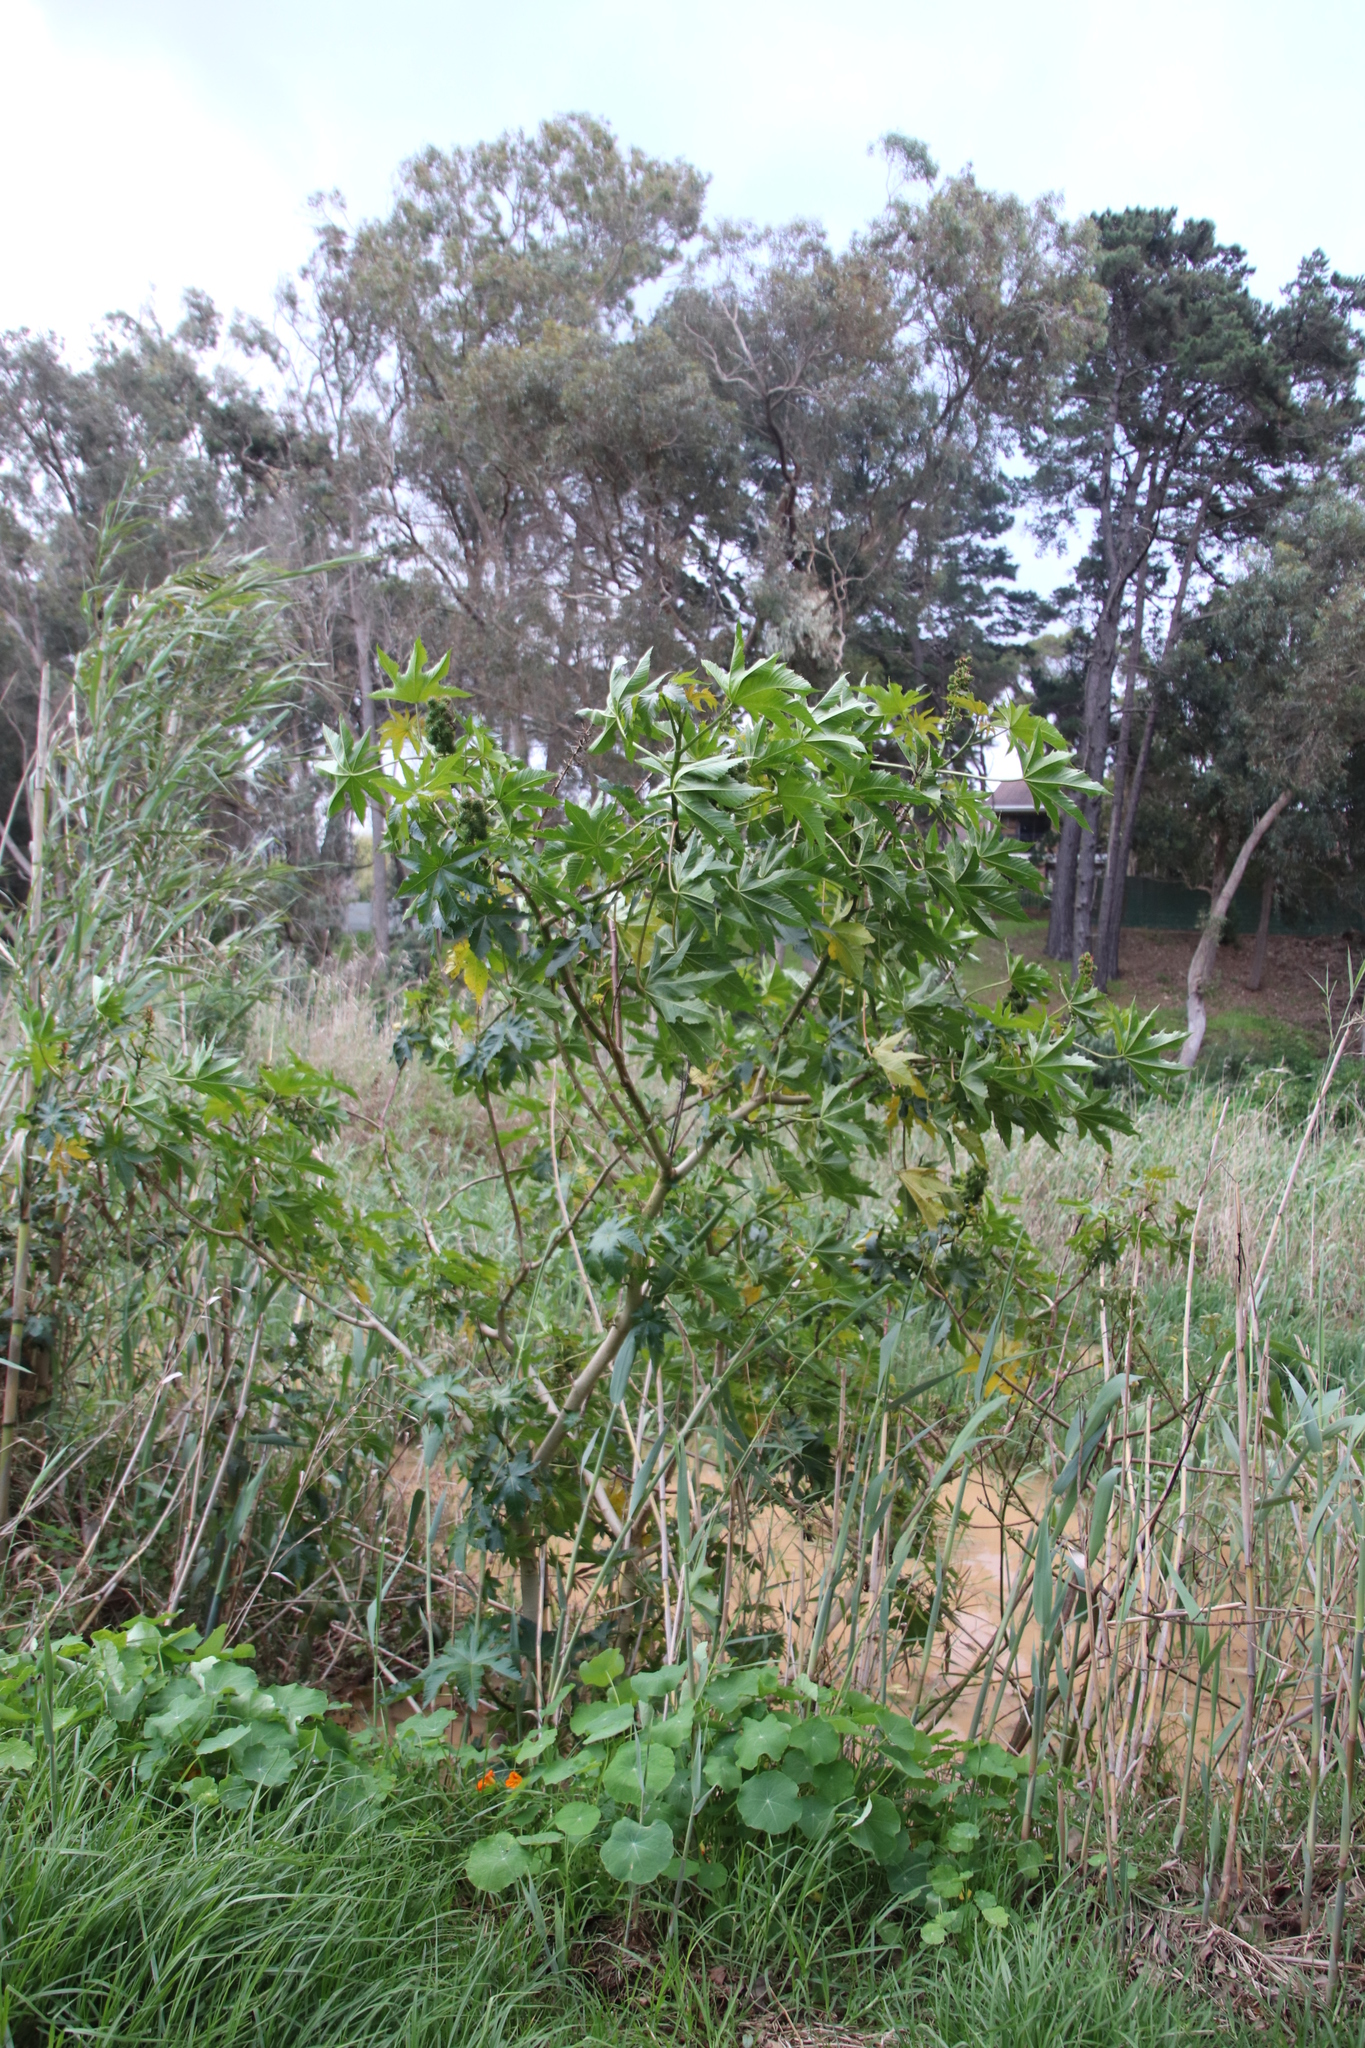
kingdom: Plantae
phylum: Tracheophyta
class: Magnoliopsida
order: Malpighiales
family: Euphorbiaceae
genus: Ricinus
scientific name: Ricinus communis
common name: Castor-oil-plant
